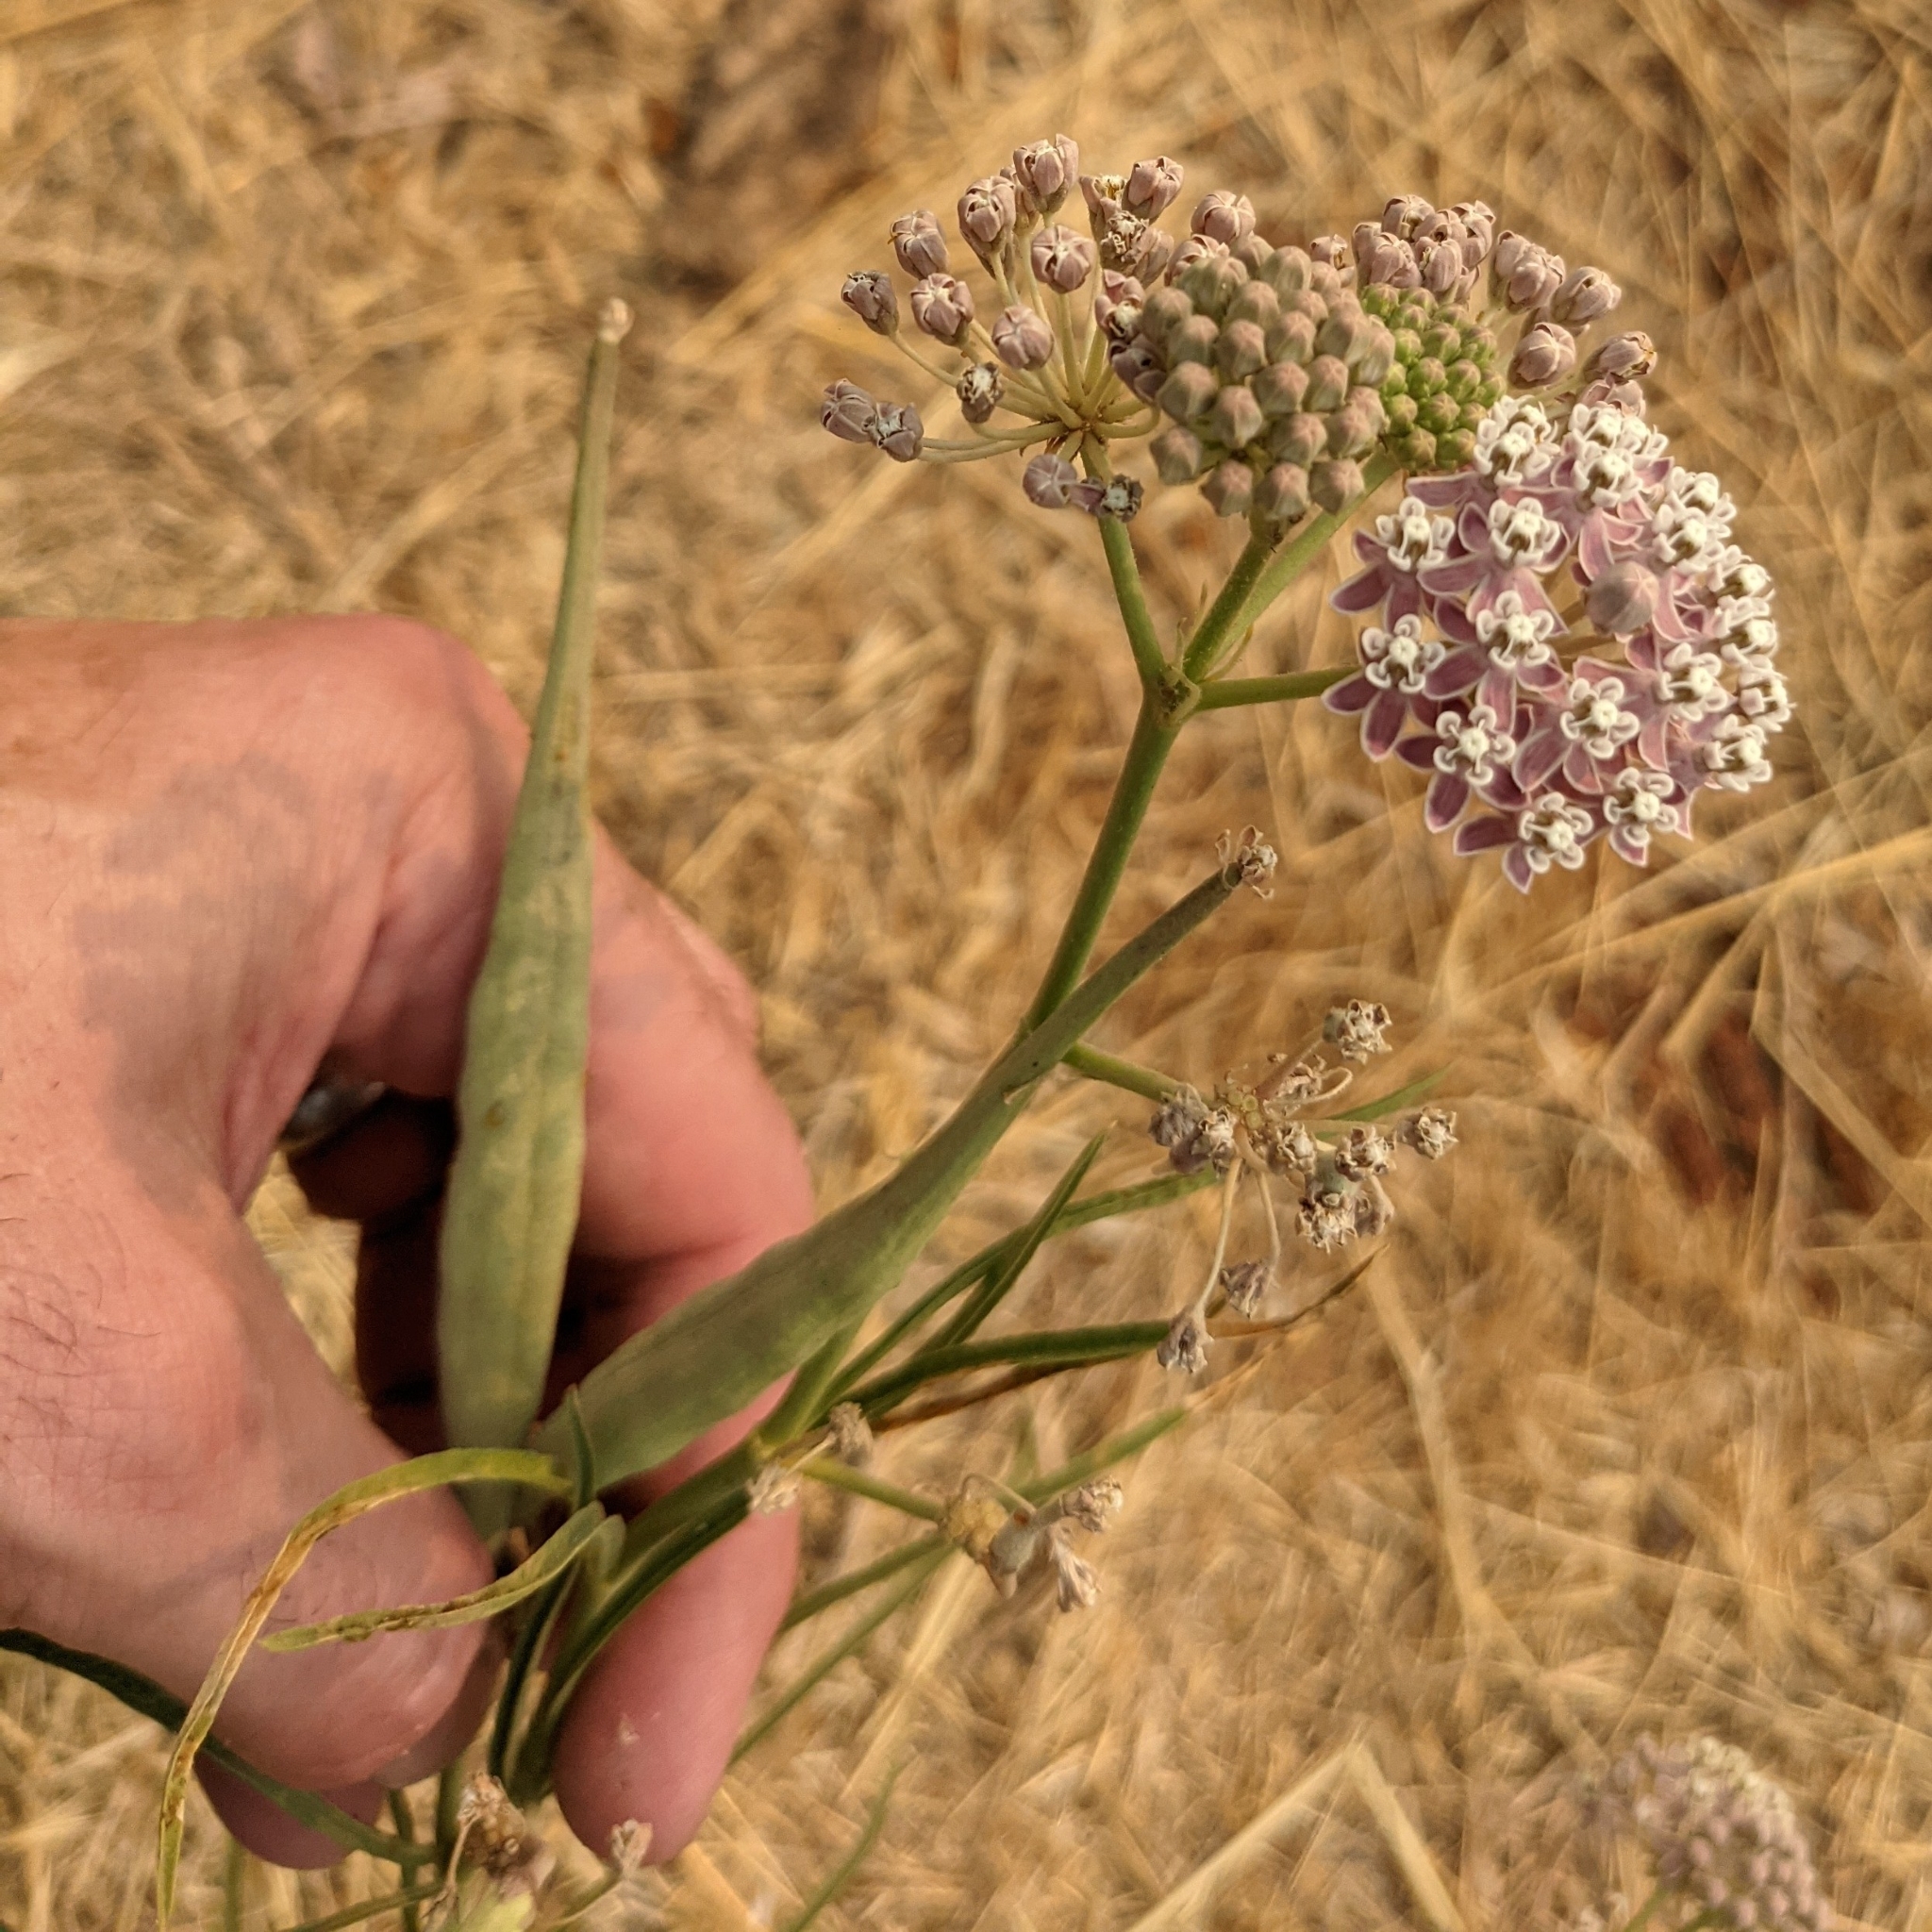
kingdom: Plantae
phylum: Tracheophyta
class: Magnoliopsida
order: Gentianales
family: Apocynaceae
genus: Asclepias
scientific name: Asclepias fascicularis
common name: Mexican milkweed
